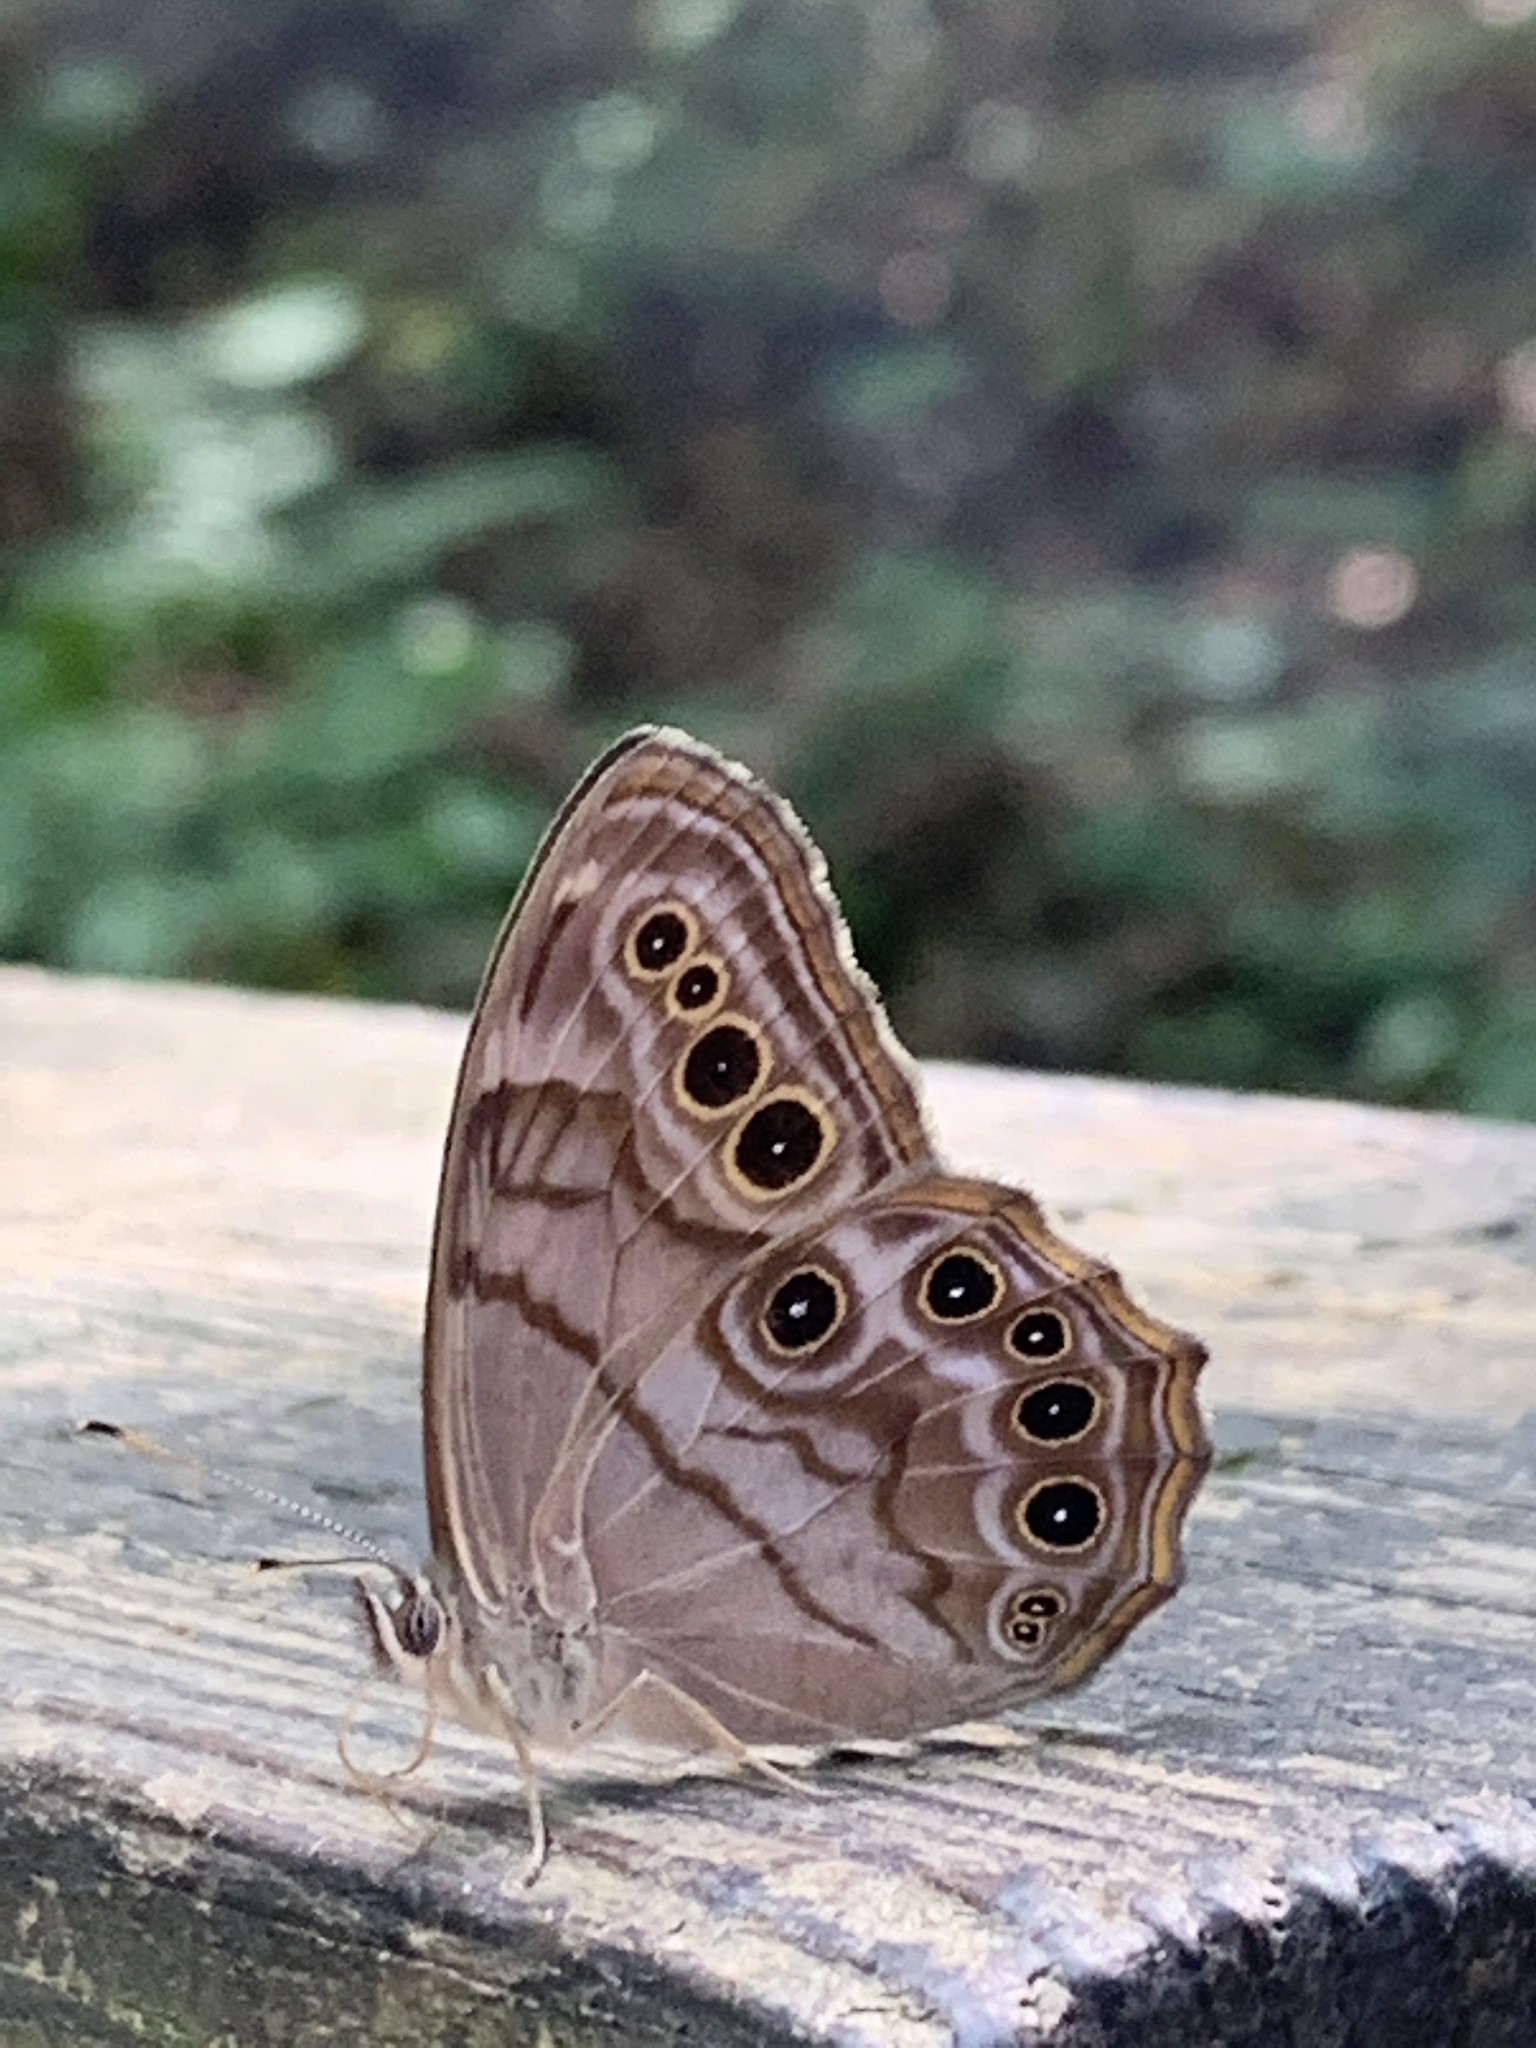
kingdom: Animalia
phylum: Arthropoda
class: Insecta
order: Lepidoptera
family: Nymphalidae
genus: Lethe
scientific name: Lethe anthedon
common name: Northern pearly-eye
